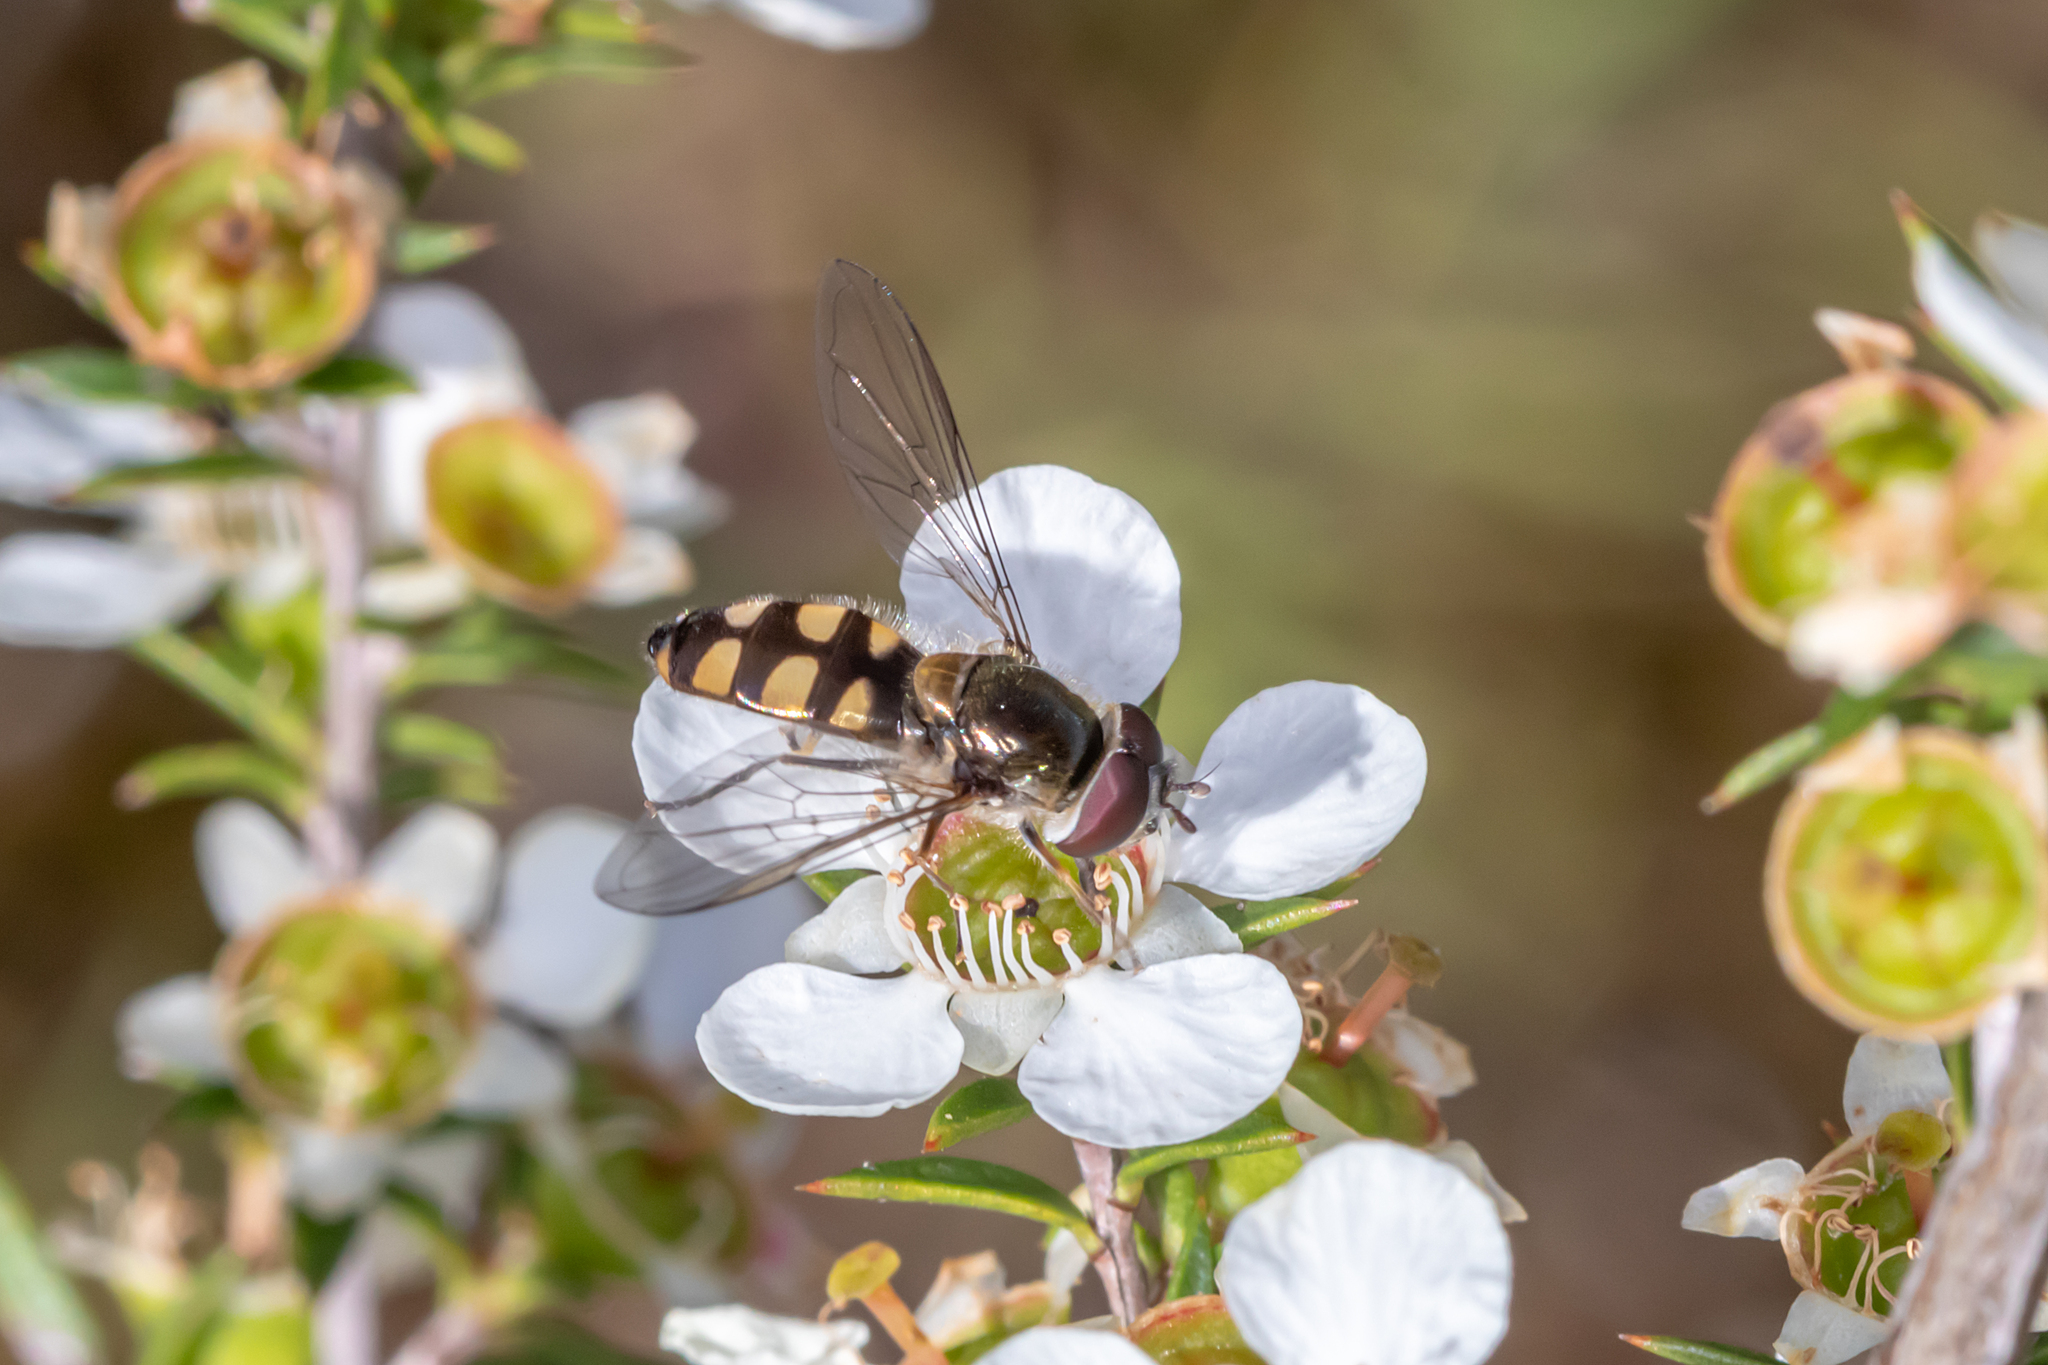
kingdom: Animalia
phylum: Arthropoda
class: Insecta
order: Diptera
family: Syrphidae
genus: Melangyna
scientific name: Melangyna viridiceps
